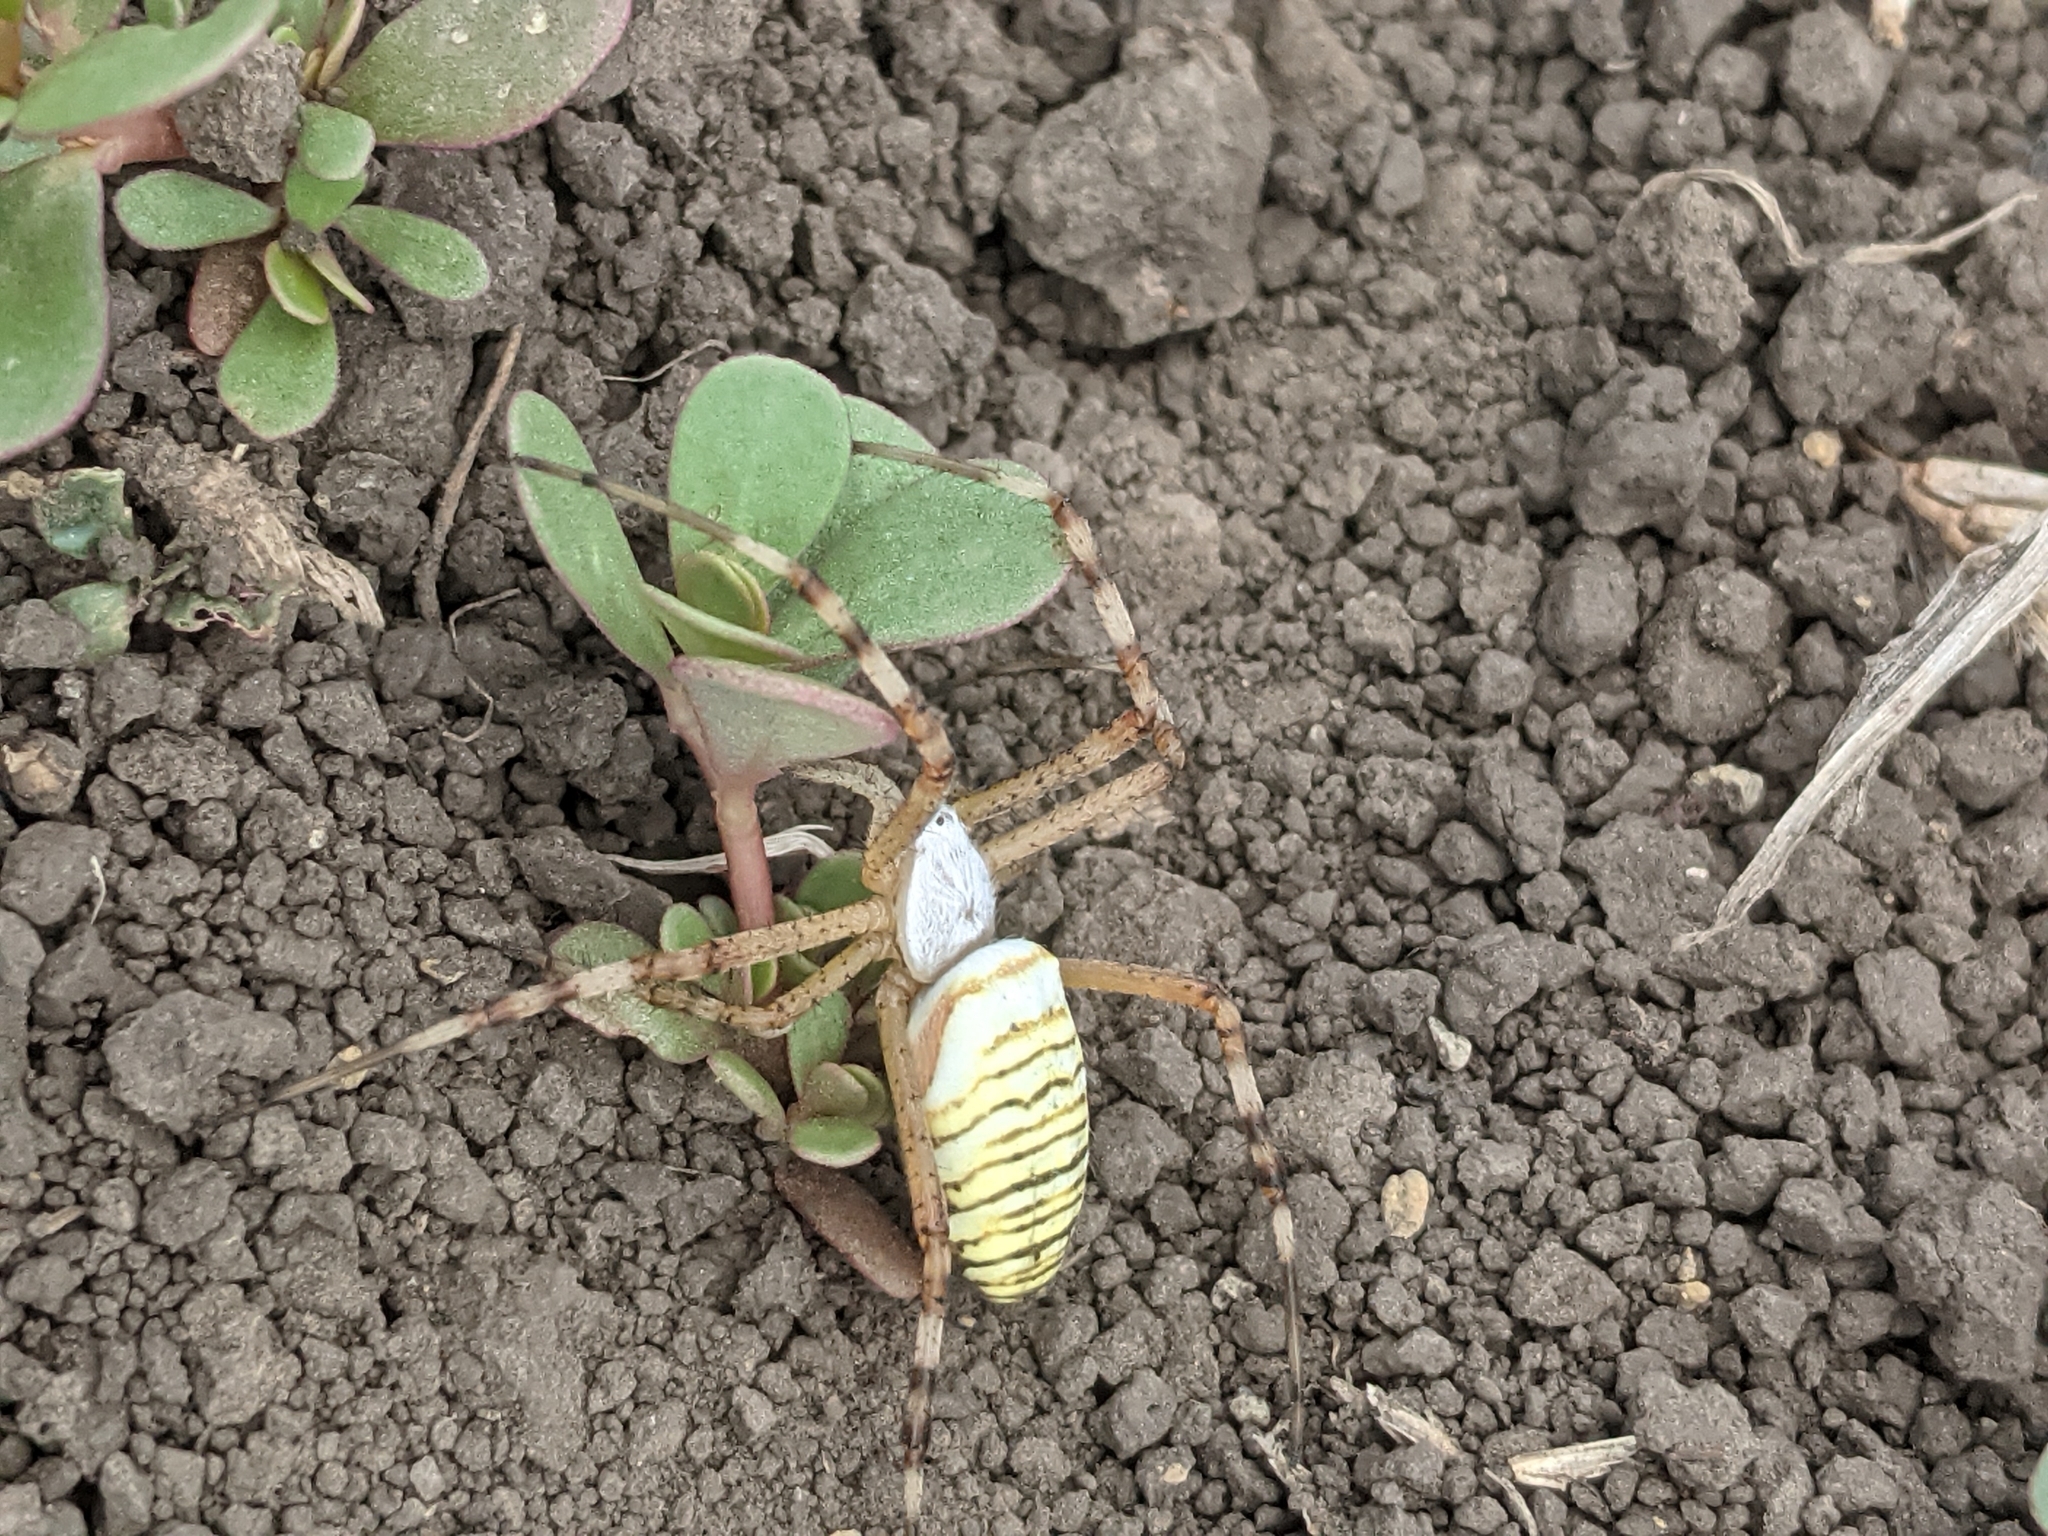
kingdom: Animalia
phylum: Arthropoda
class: Arachnida
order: Araneae
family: Araneidae
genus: Argiope
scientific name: Argiope bruennichi
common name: Wasp spider
